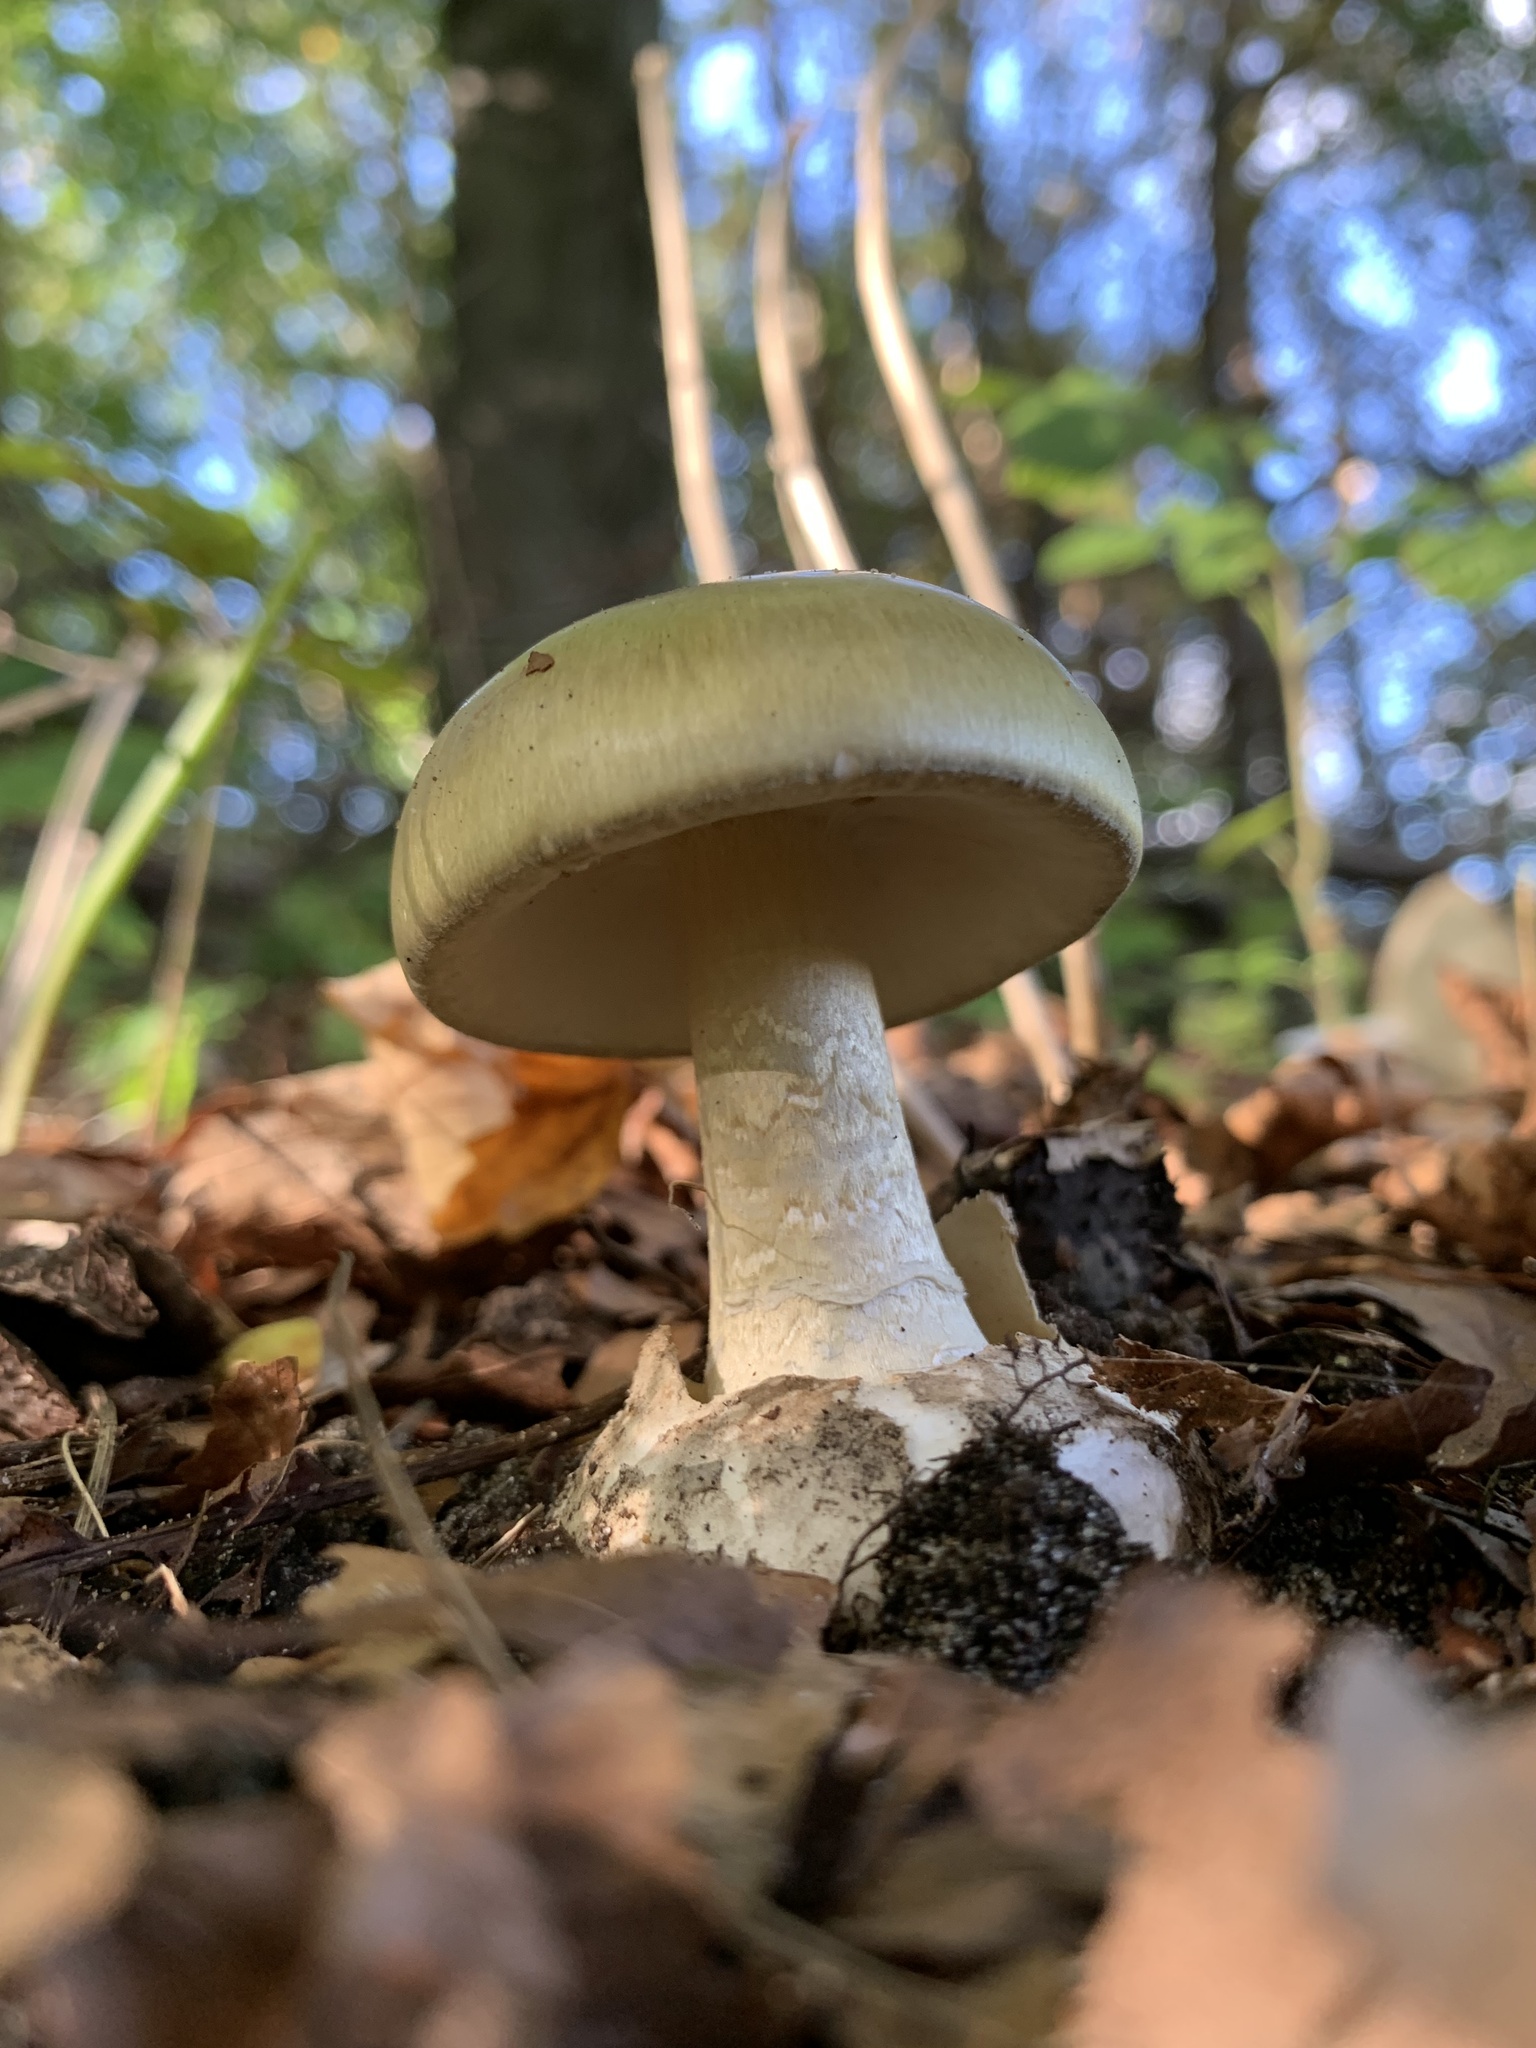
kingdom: Fungi
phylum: Basidiomycota
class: Agaricomycetes
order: Agaricales
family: Amanitaceae
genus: Amanita
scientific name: Amanita phalloides
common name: Death cap
